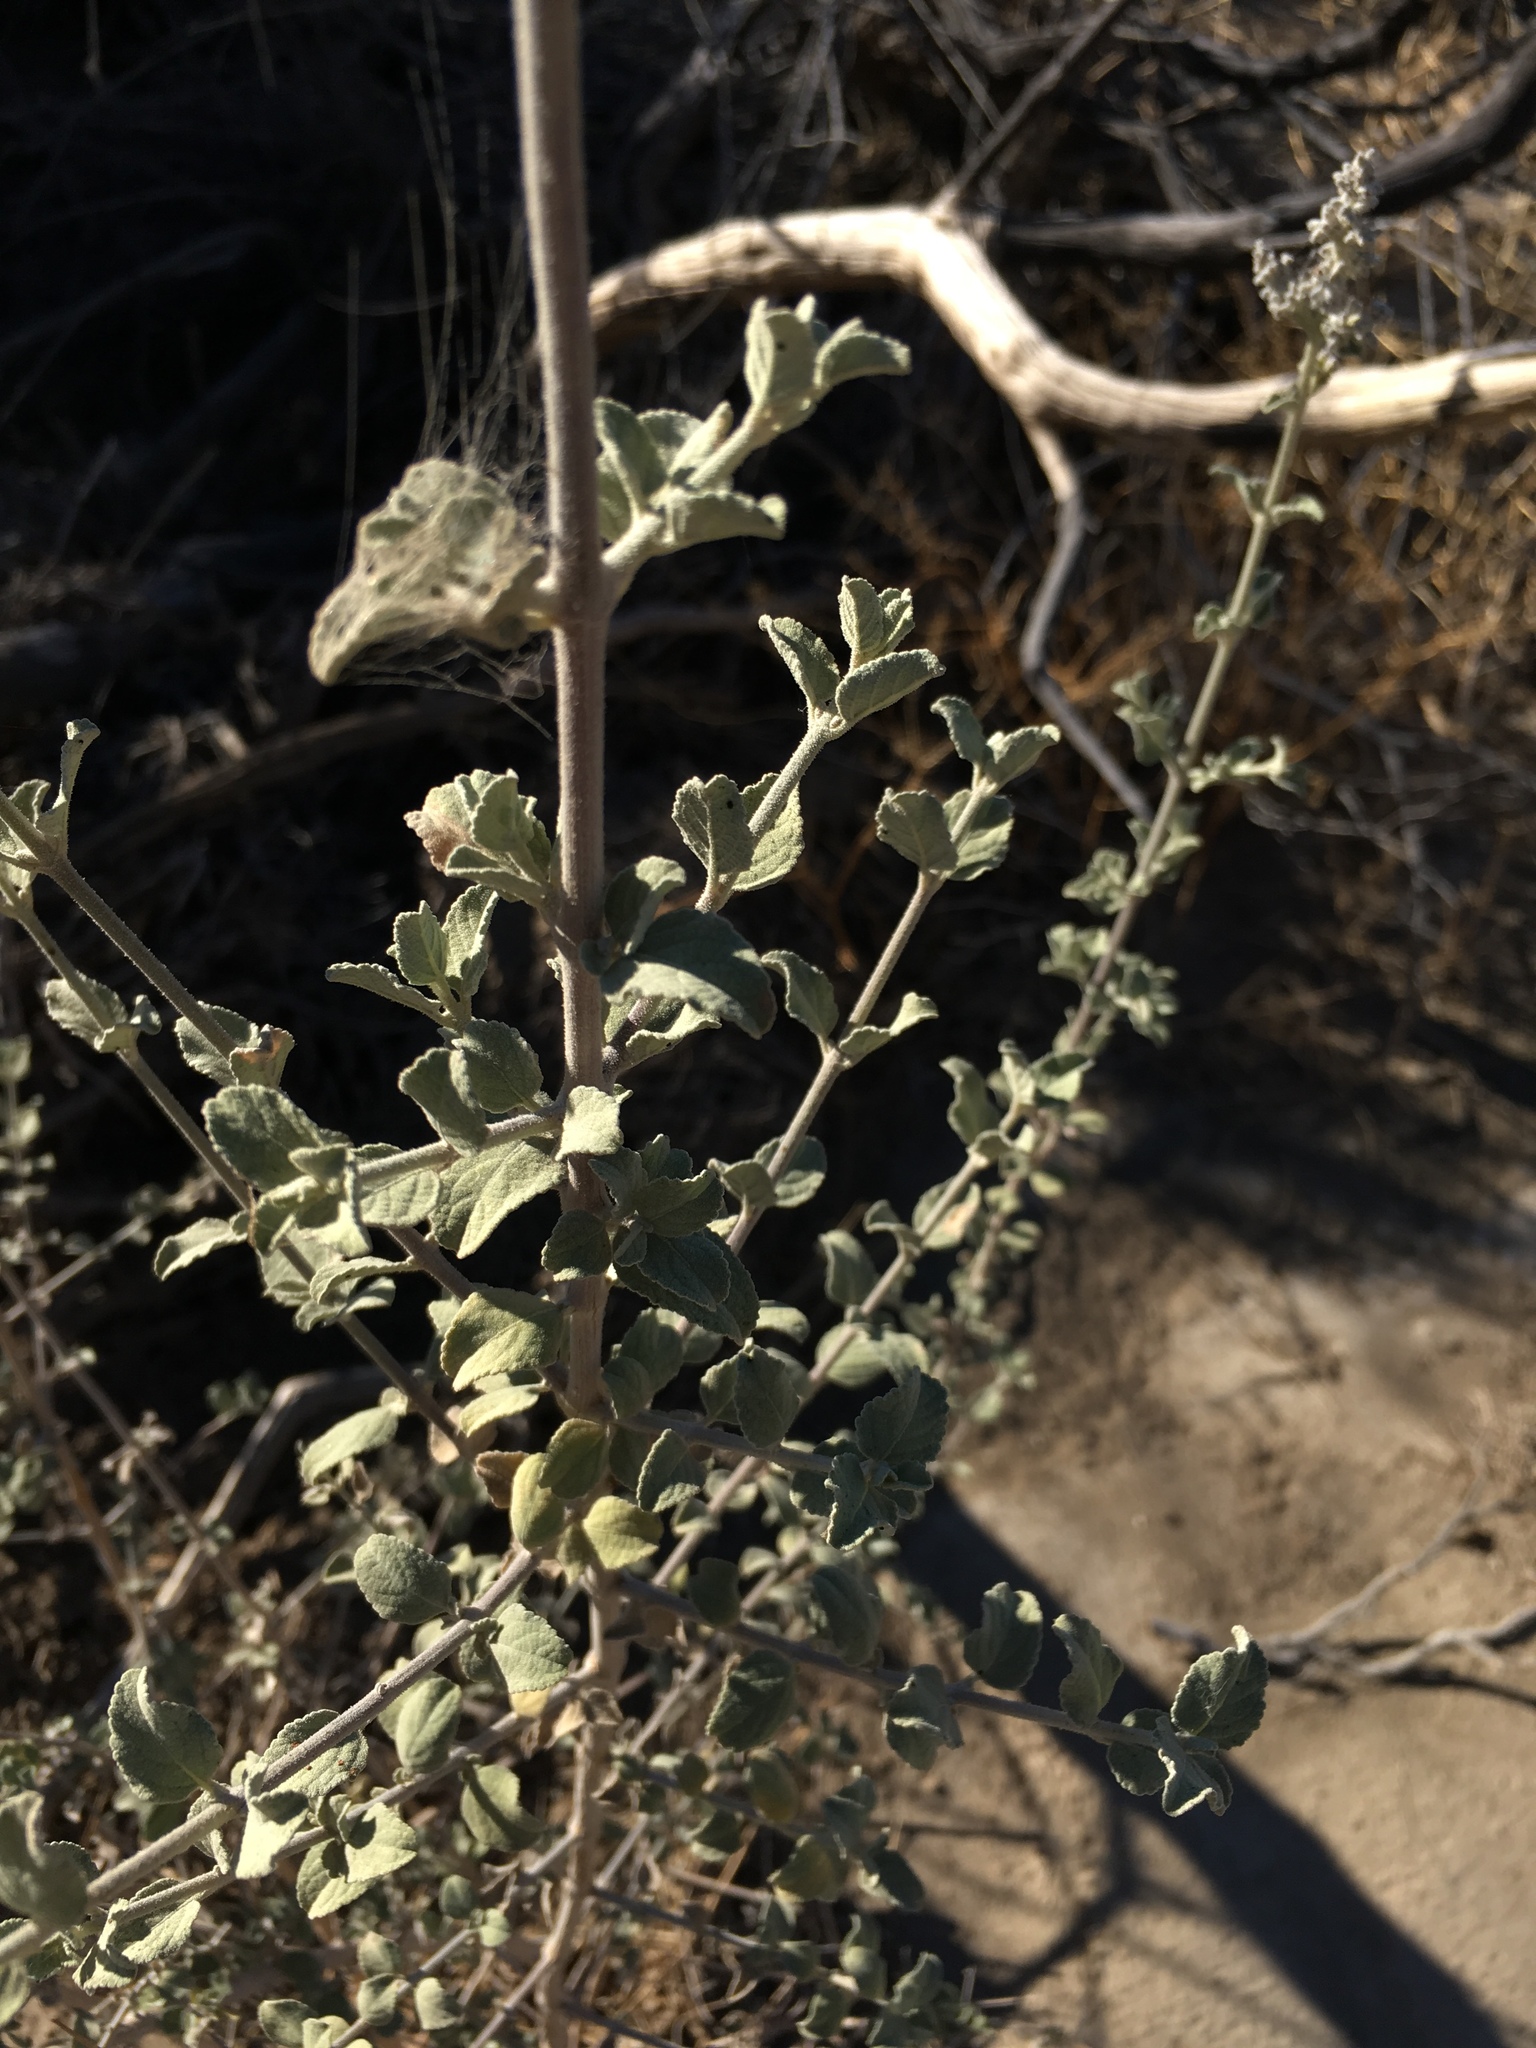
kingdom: Plantae
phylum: Tracheophyta
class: Magnoliopsida
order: Lamiales
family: Lamiaceae
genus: Condea
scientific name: Condea emoryi
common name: Chia
